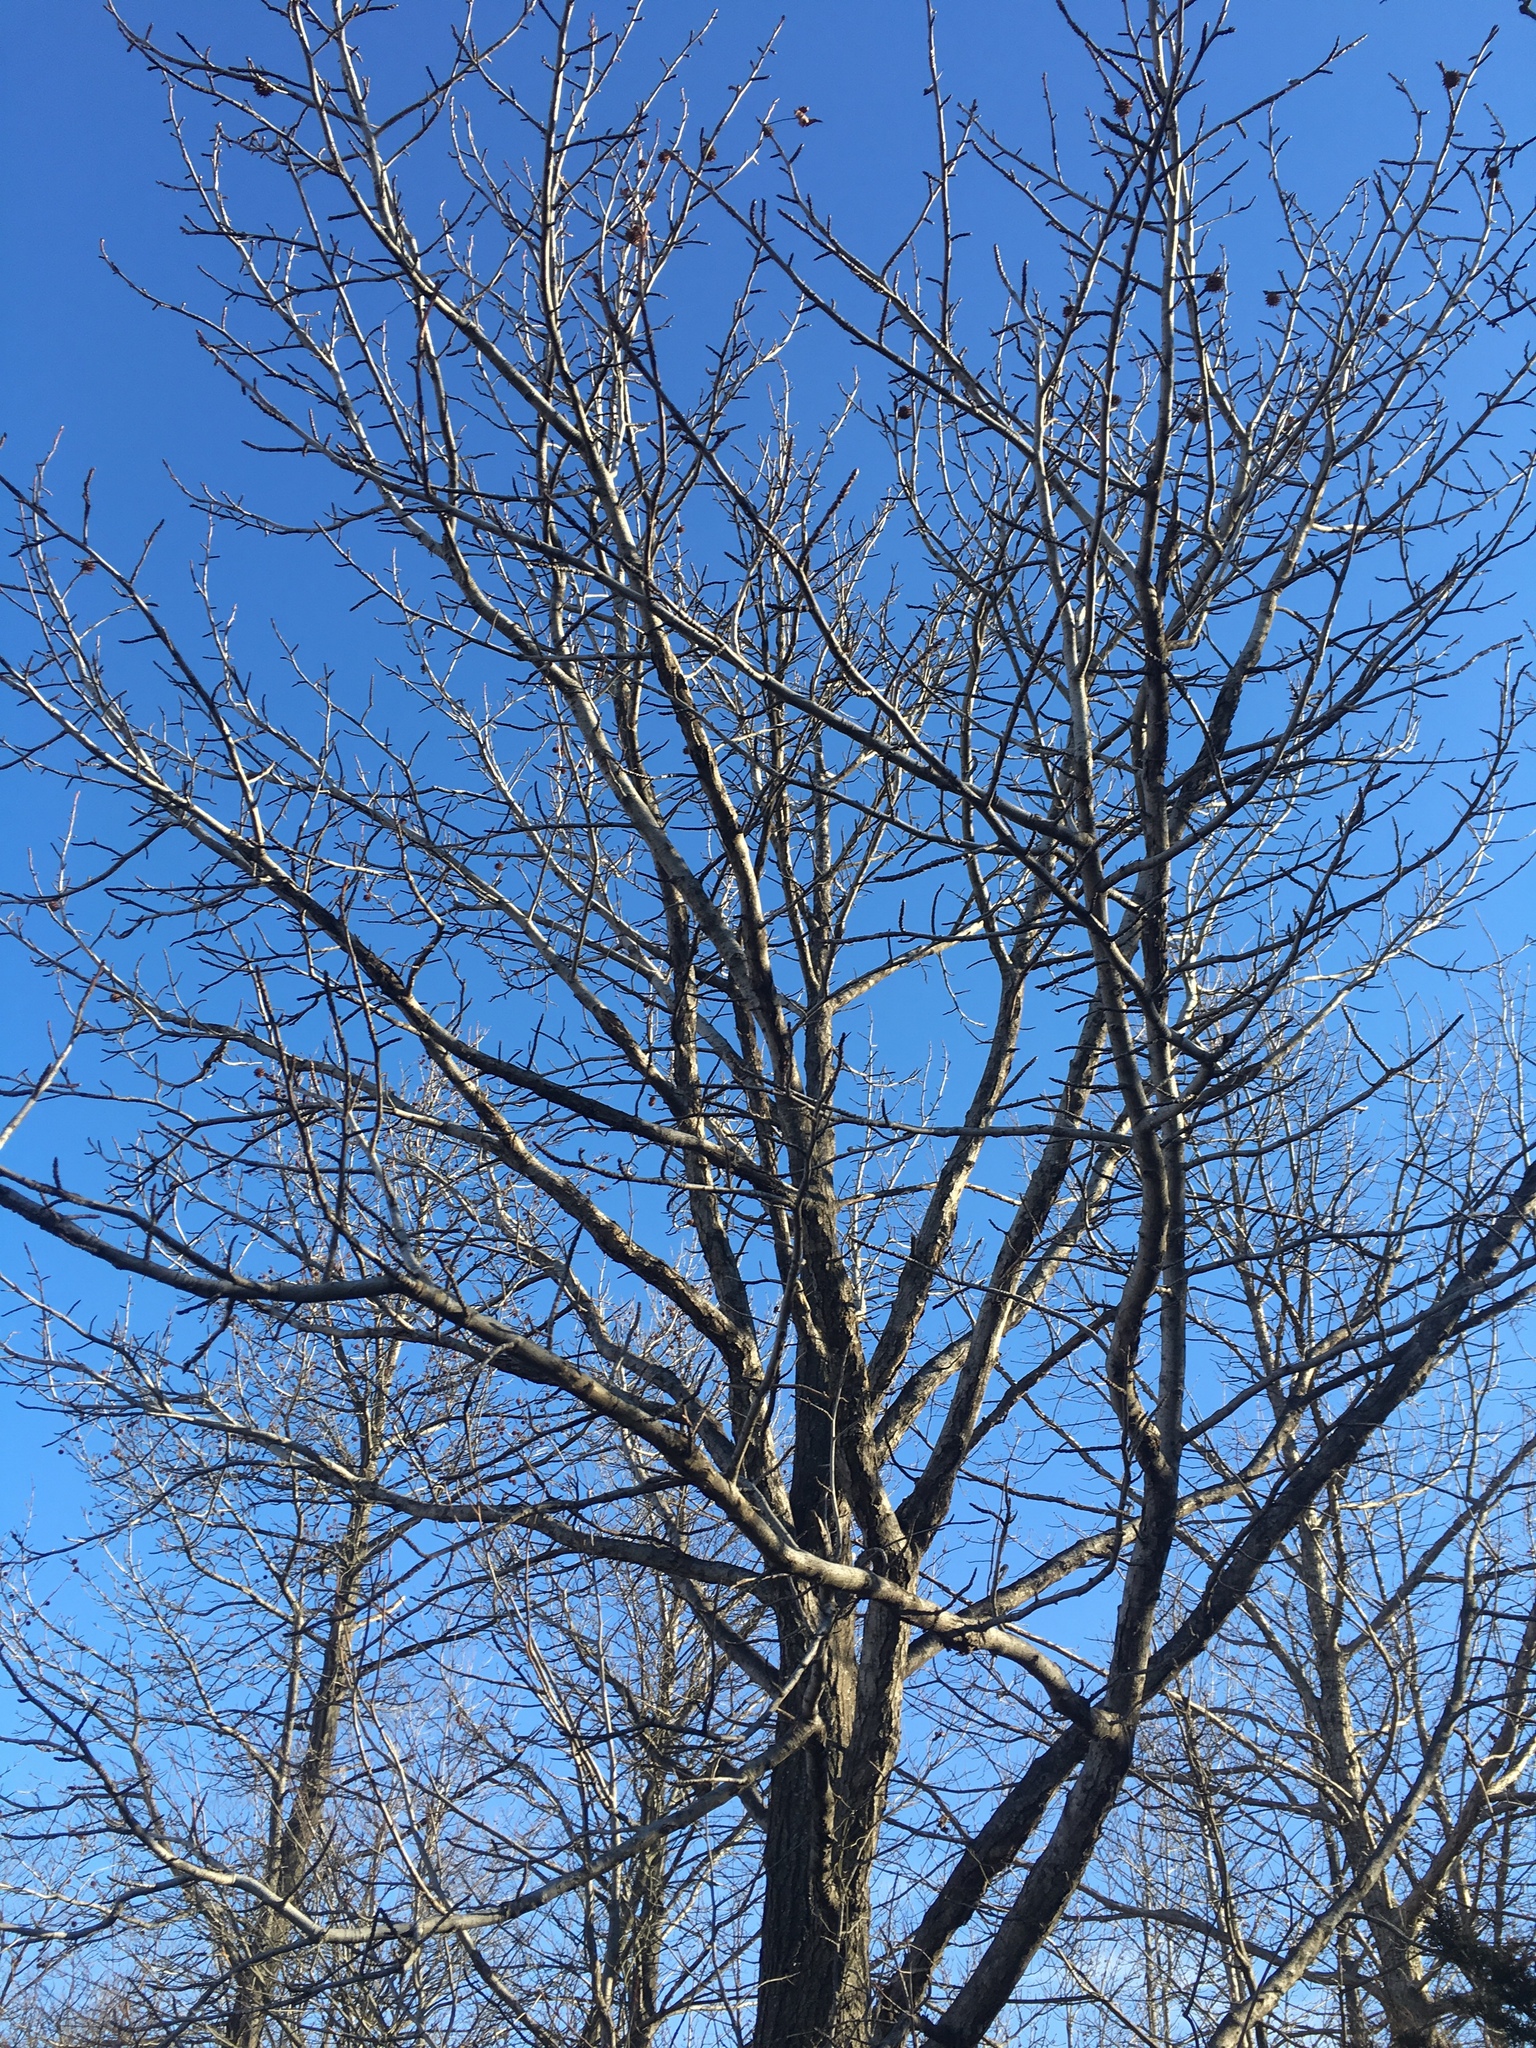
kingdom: Plantae
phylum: Tracheophyta
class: Magnoliopsida
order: Saxifragales
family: Altingiaceae
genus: Liquidambar
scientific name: Liquidambar styraciflua
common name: Sweet gum
